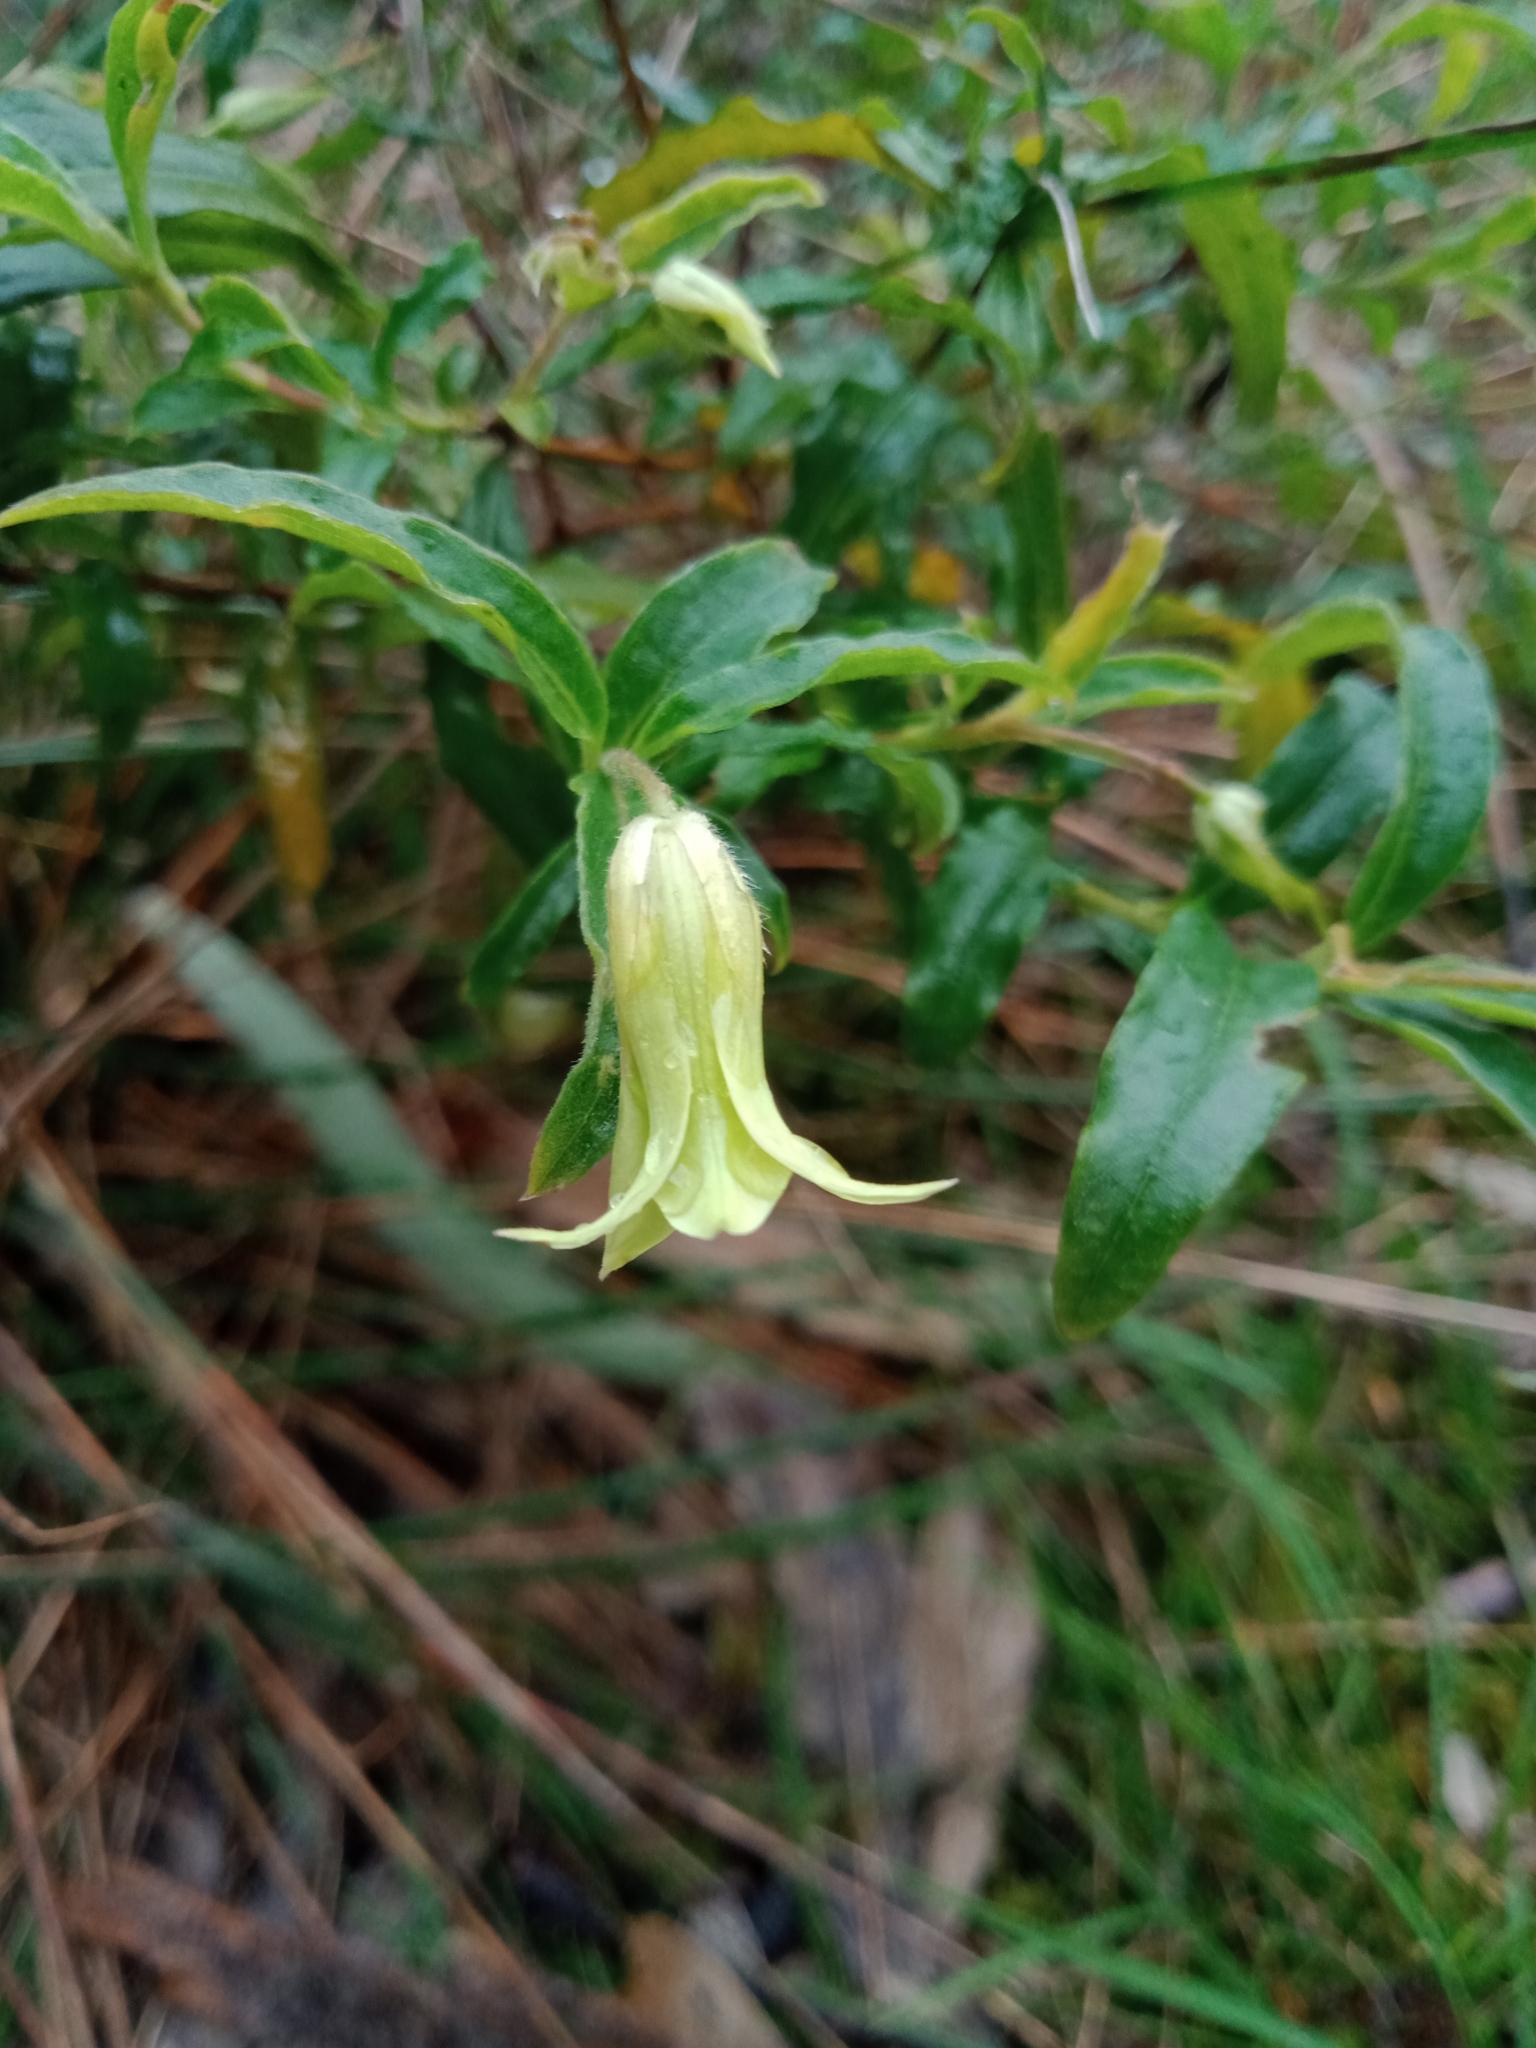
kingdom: Plantae
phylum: Tracheophyta
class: Magnoliopsida
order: Apiales
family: Pittosporaceae
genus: Billardiera
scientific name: Billardiera mutabilis
